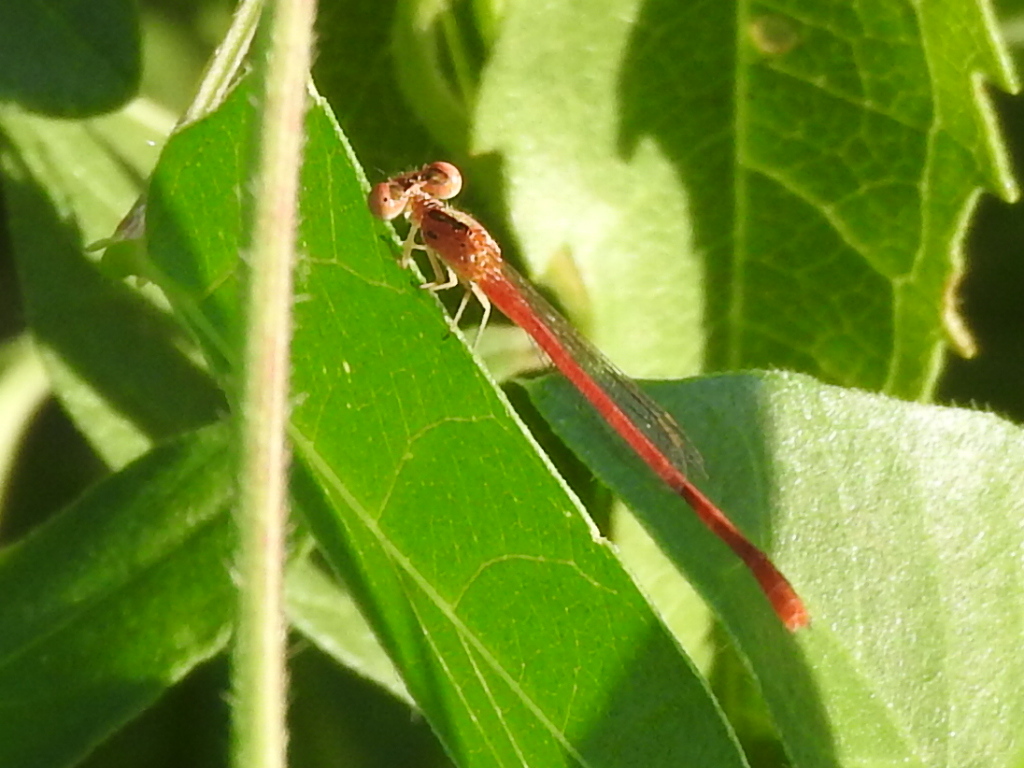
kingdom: Animalia
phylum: Arthropoda
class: Insecta
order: Odonata
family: Coenagrionidae
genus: Telebasis
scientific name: Telebasis salva
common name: Desert firetail
